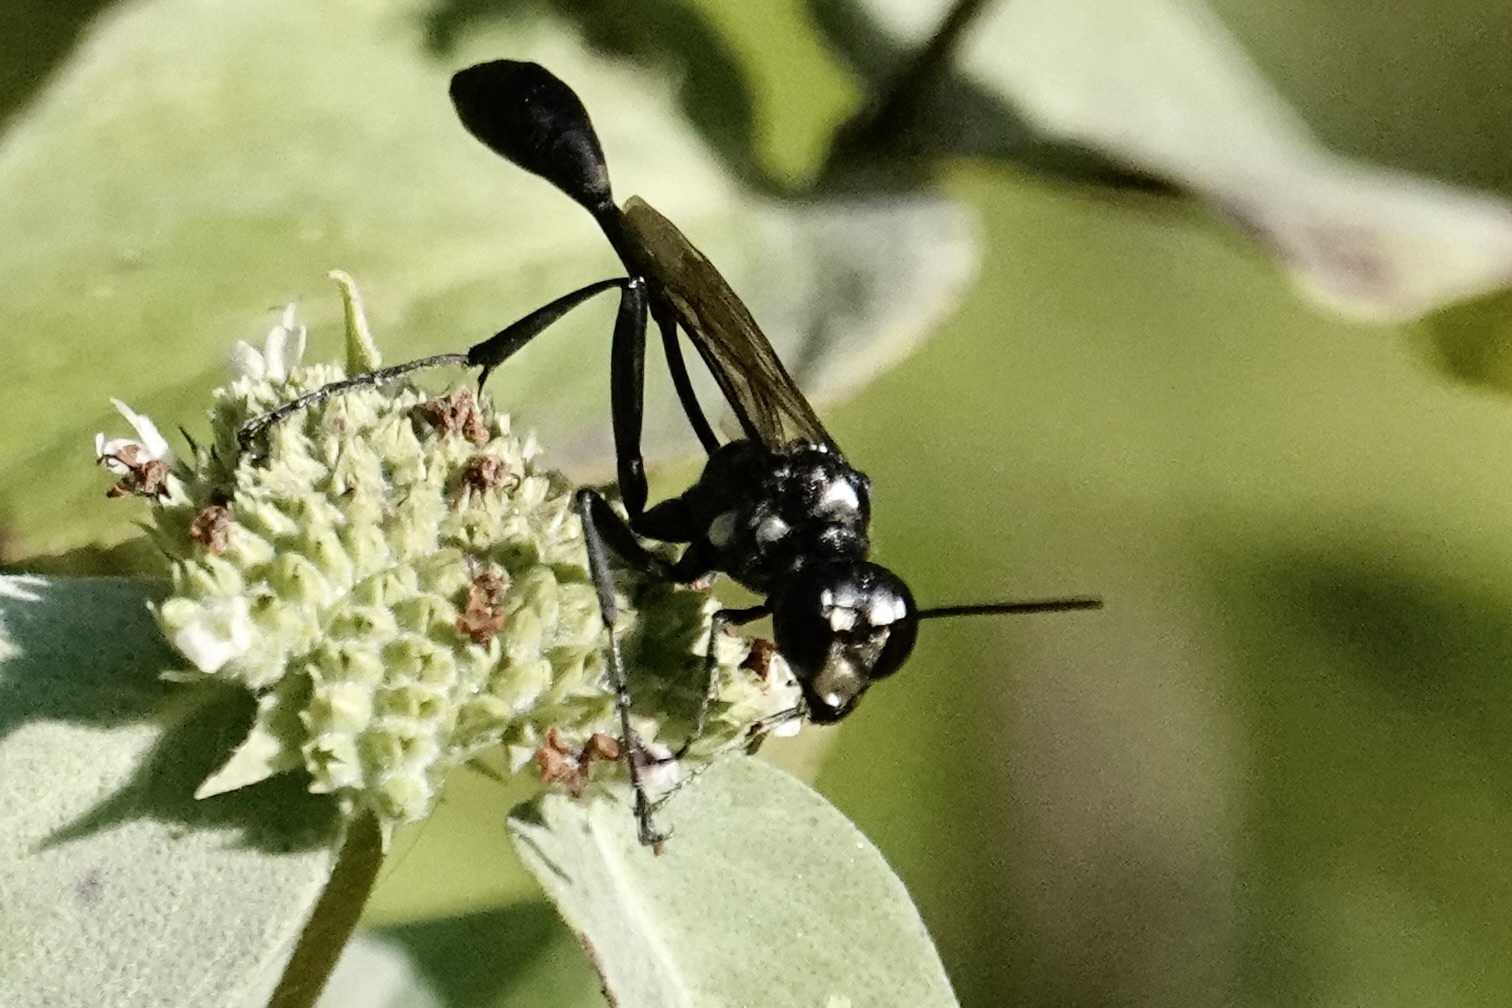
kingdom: Animalia
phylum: Arthropoda
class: Insecta
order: Hymenoptera
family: Sphecidae
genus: Eremnophila
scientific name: Eremnophila aureonotata
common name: Gold-marked thread-waisted wasp
